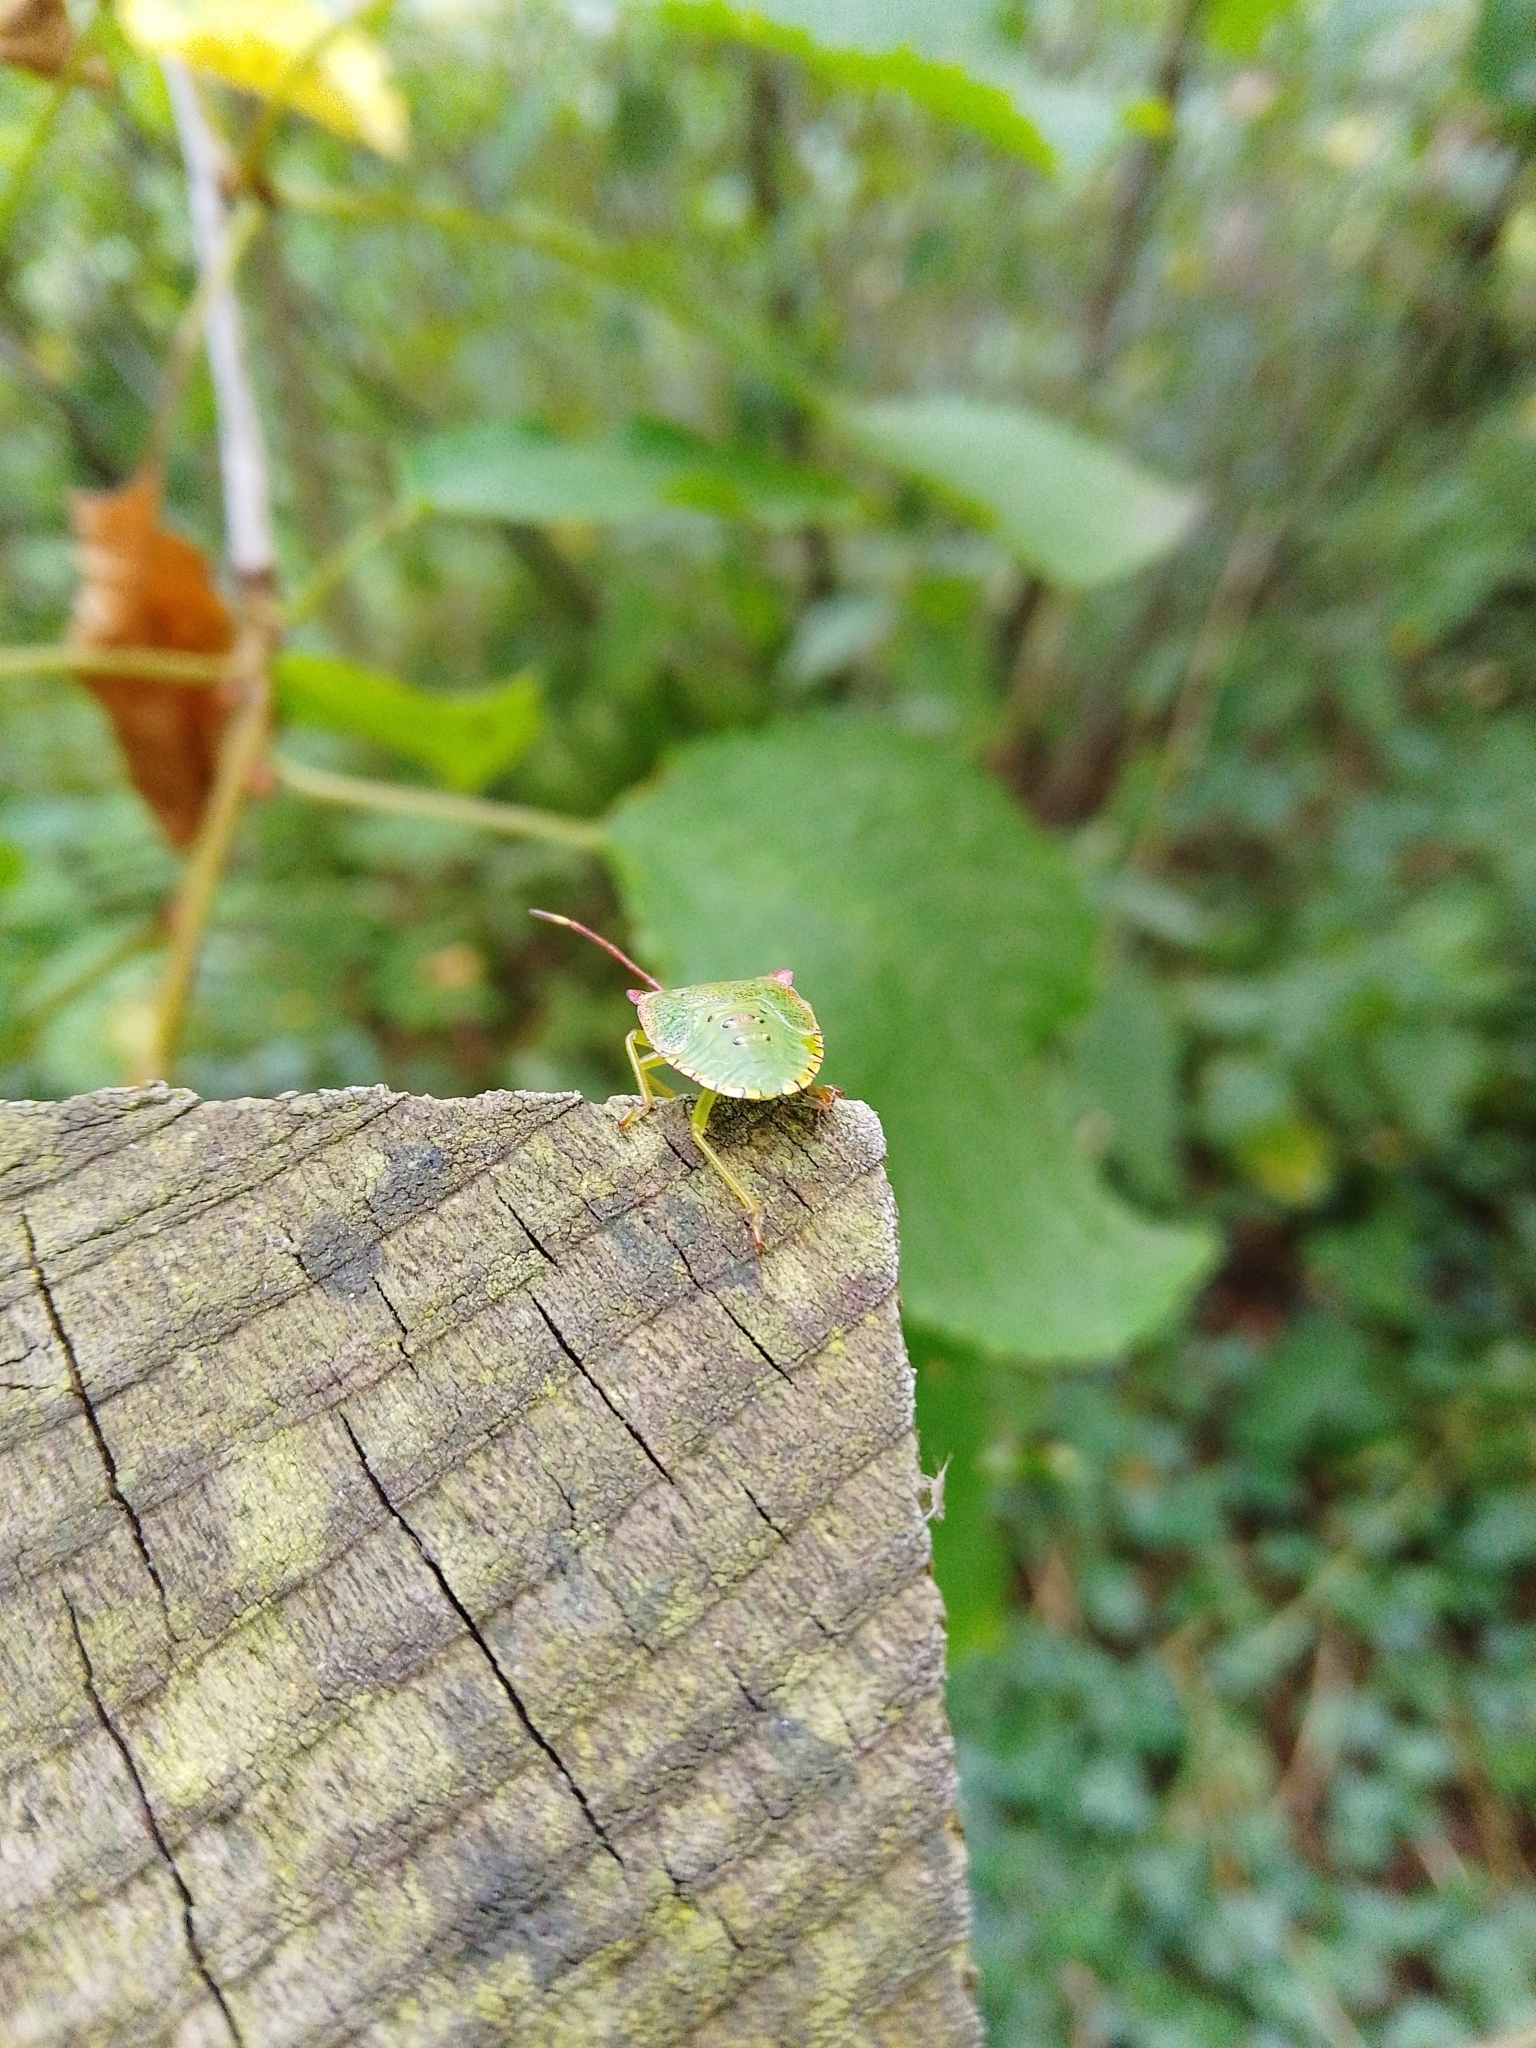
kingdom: Animalia
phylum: Arthropoda
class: Insecta
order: Hemiptera
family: Acanthosomatidae
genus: Acanthosoma
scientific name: Acanthosoma haemorrhoidale
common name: Hawthorn shieldbug
